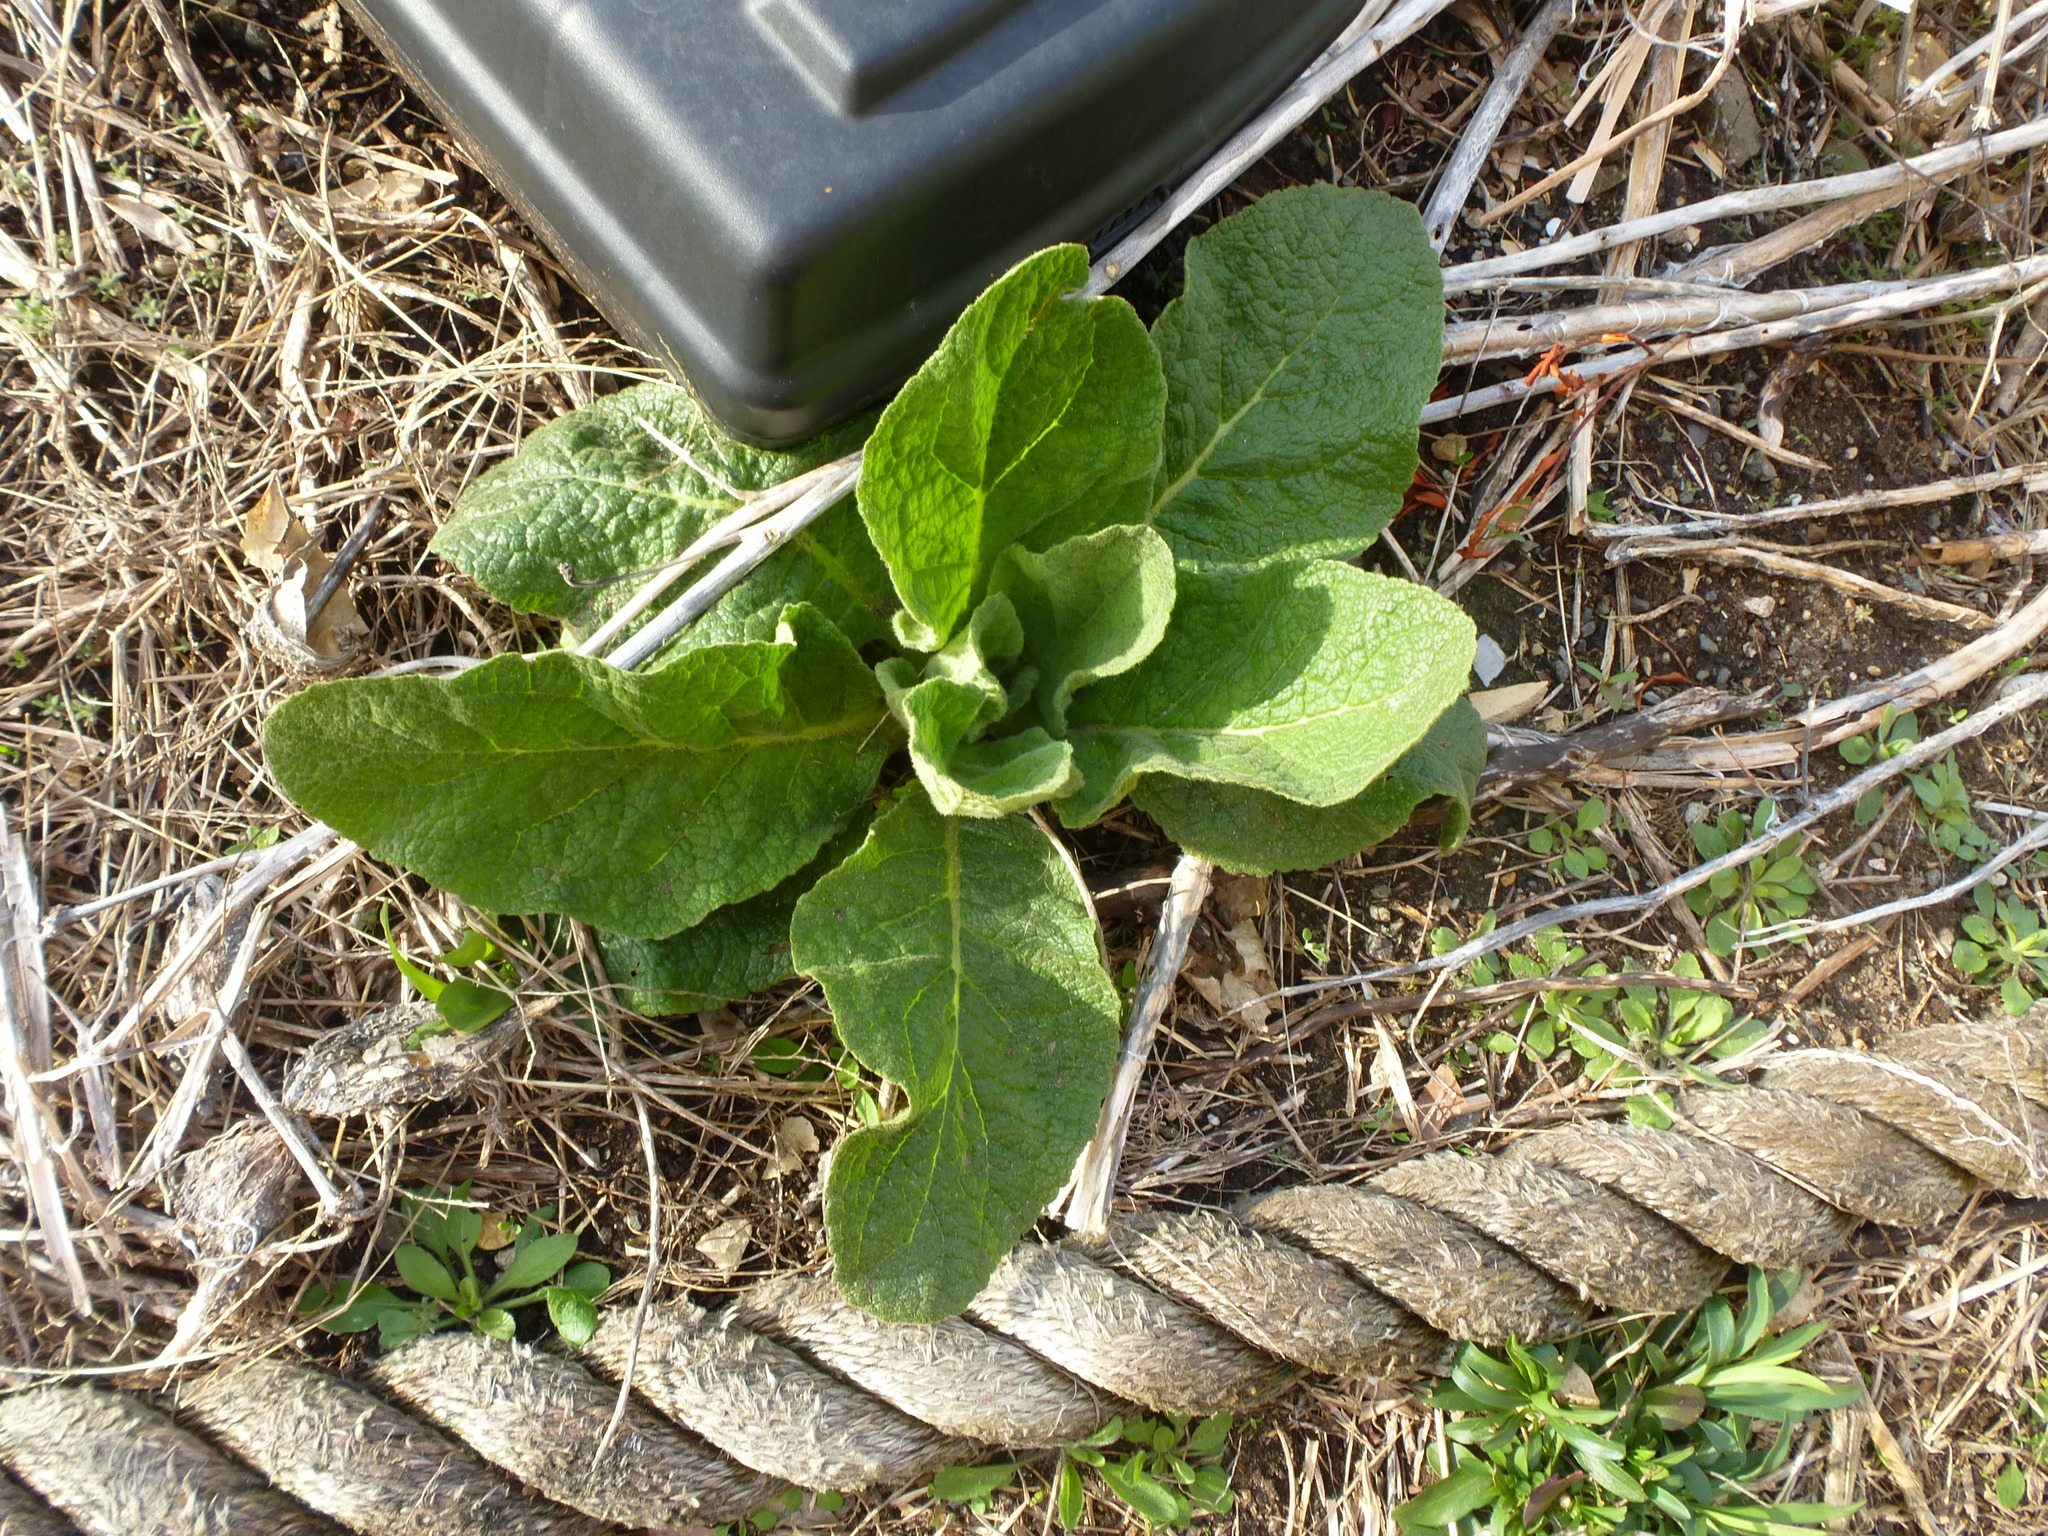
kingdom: Plantae
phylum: Tracheophyta
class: Magnoliopsida
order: Lamiales
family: Scrophulariaceae
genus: Verbascum
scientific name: Verbascum thapsus
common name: Common mullein
